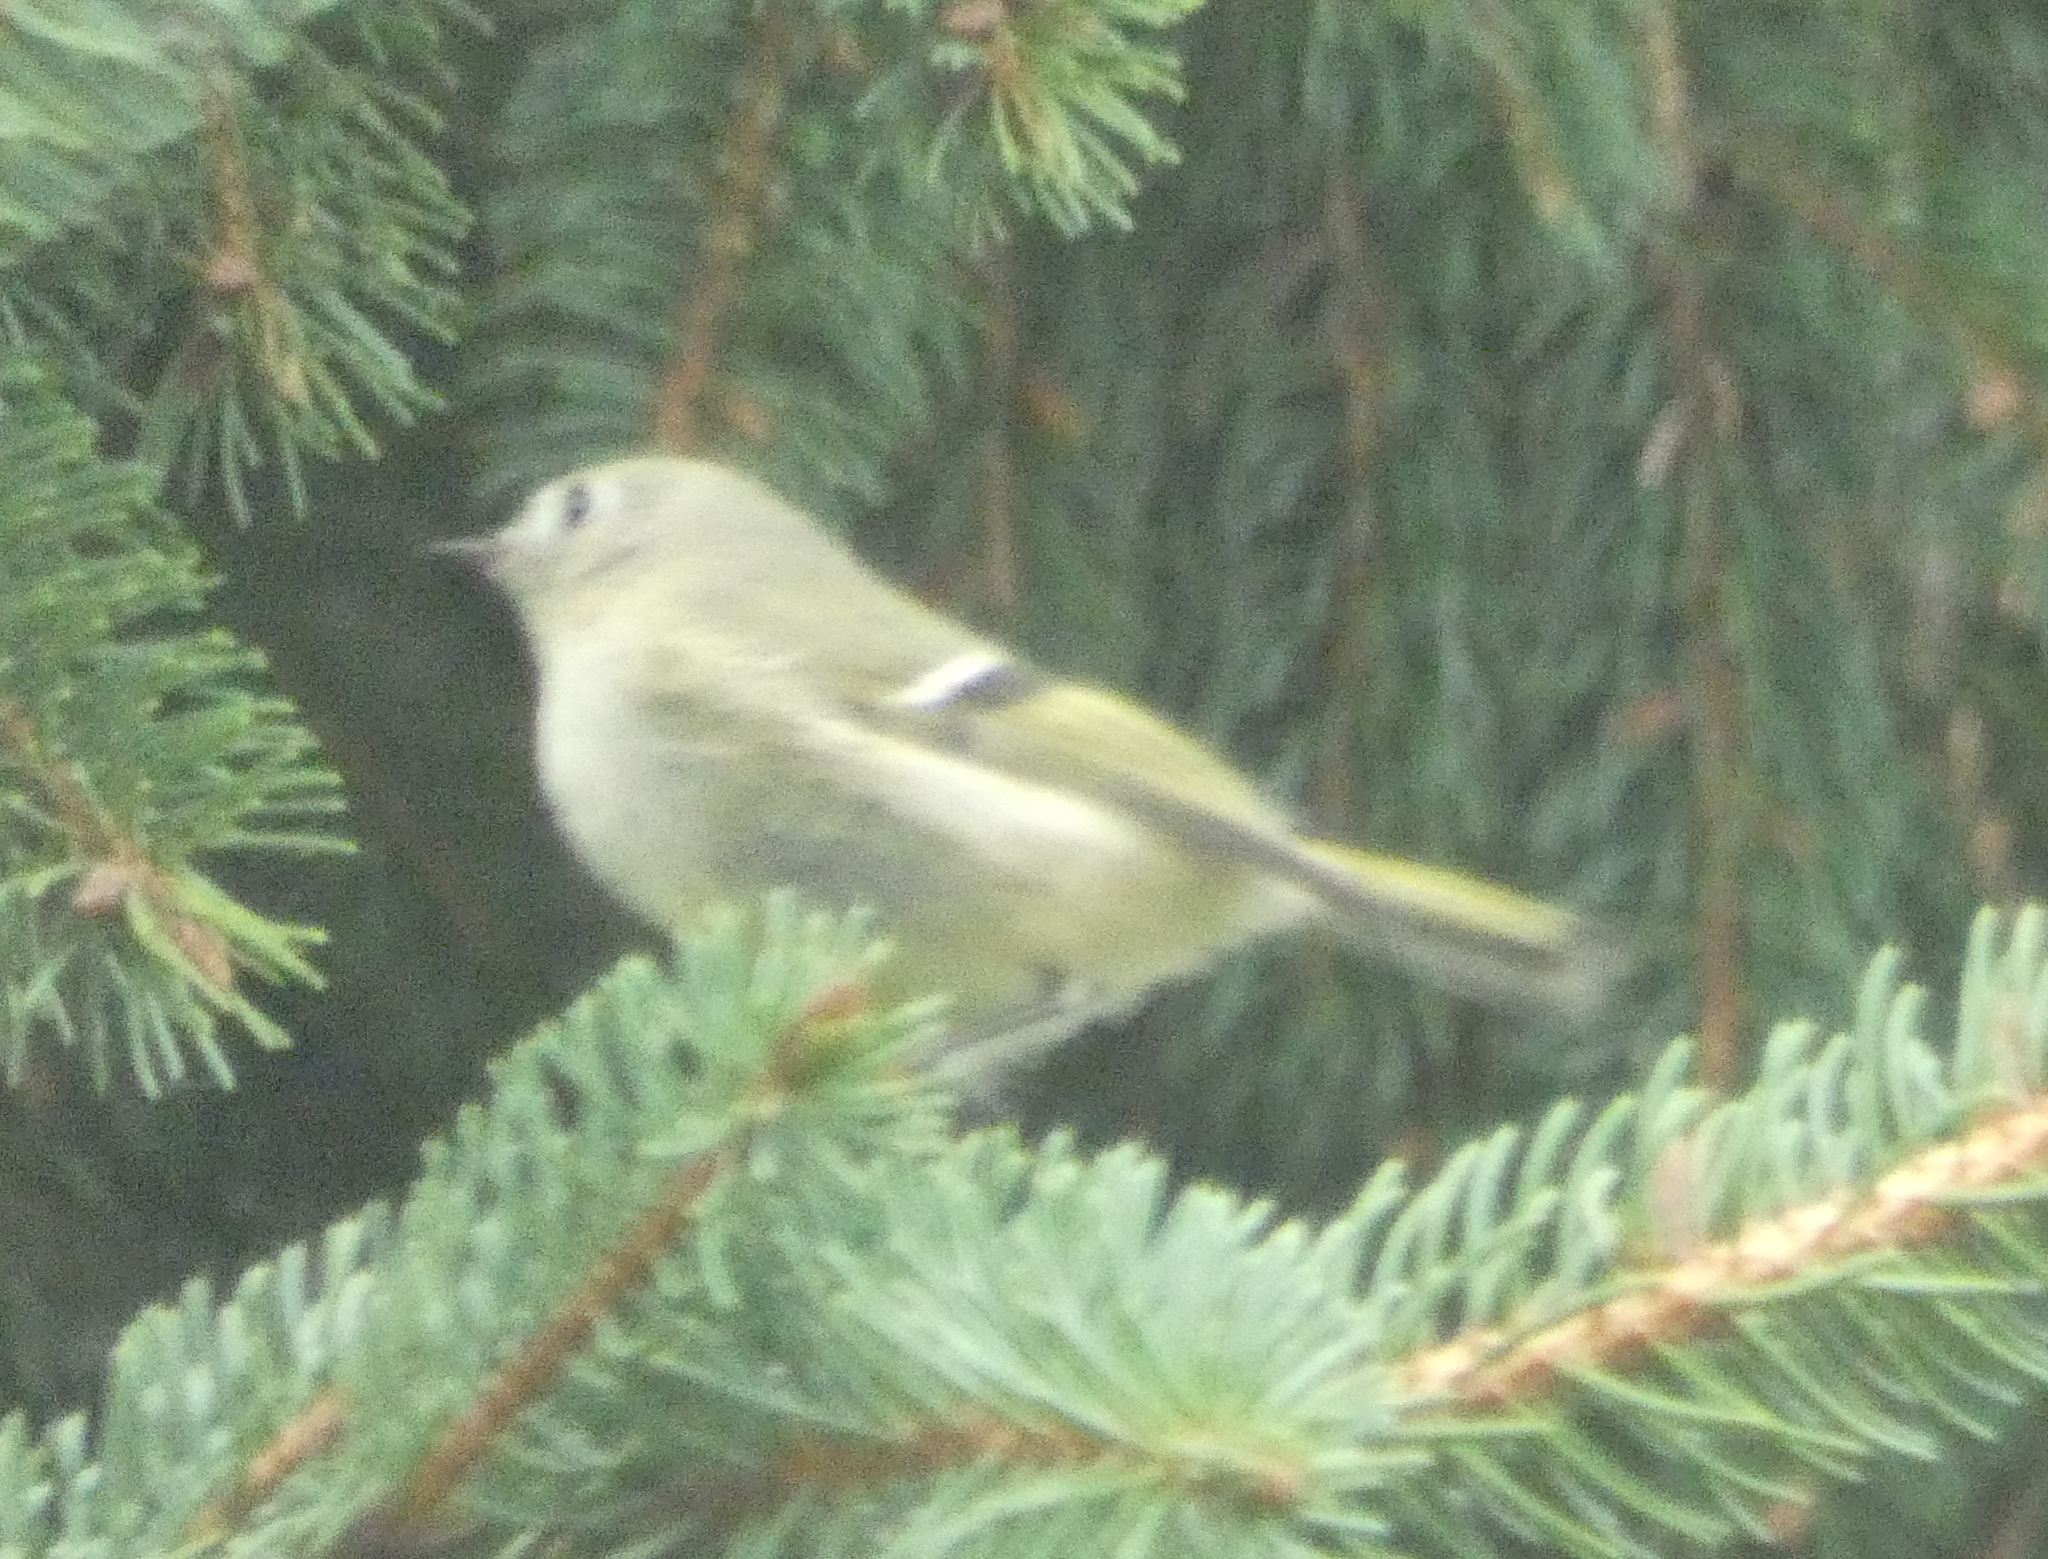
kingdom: Animalia
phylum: Chordata
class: Aves
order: Passeriformes
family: Regulidae
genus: Regulus
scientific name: Regulus calendula
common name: Ruby-crowned kinglet
